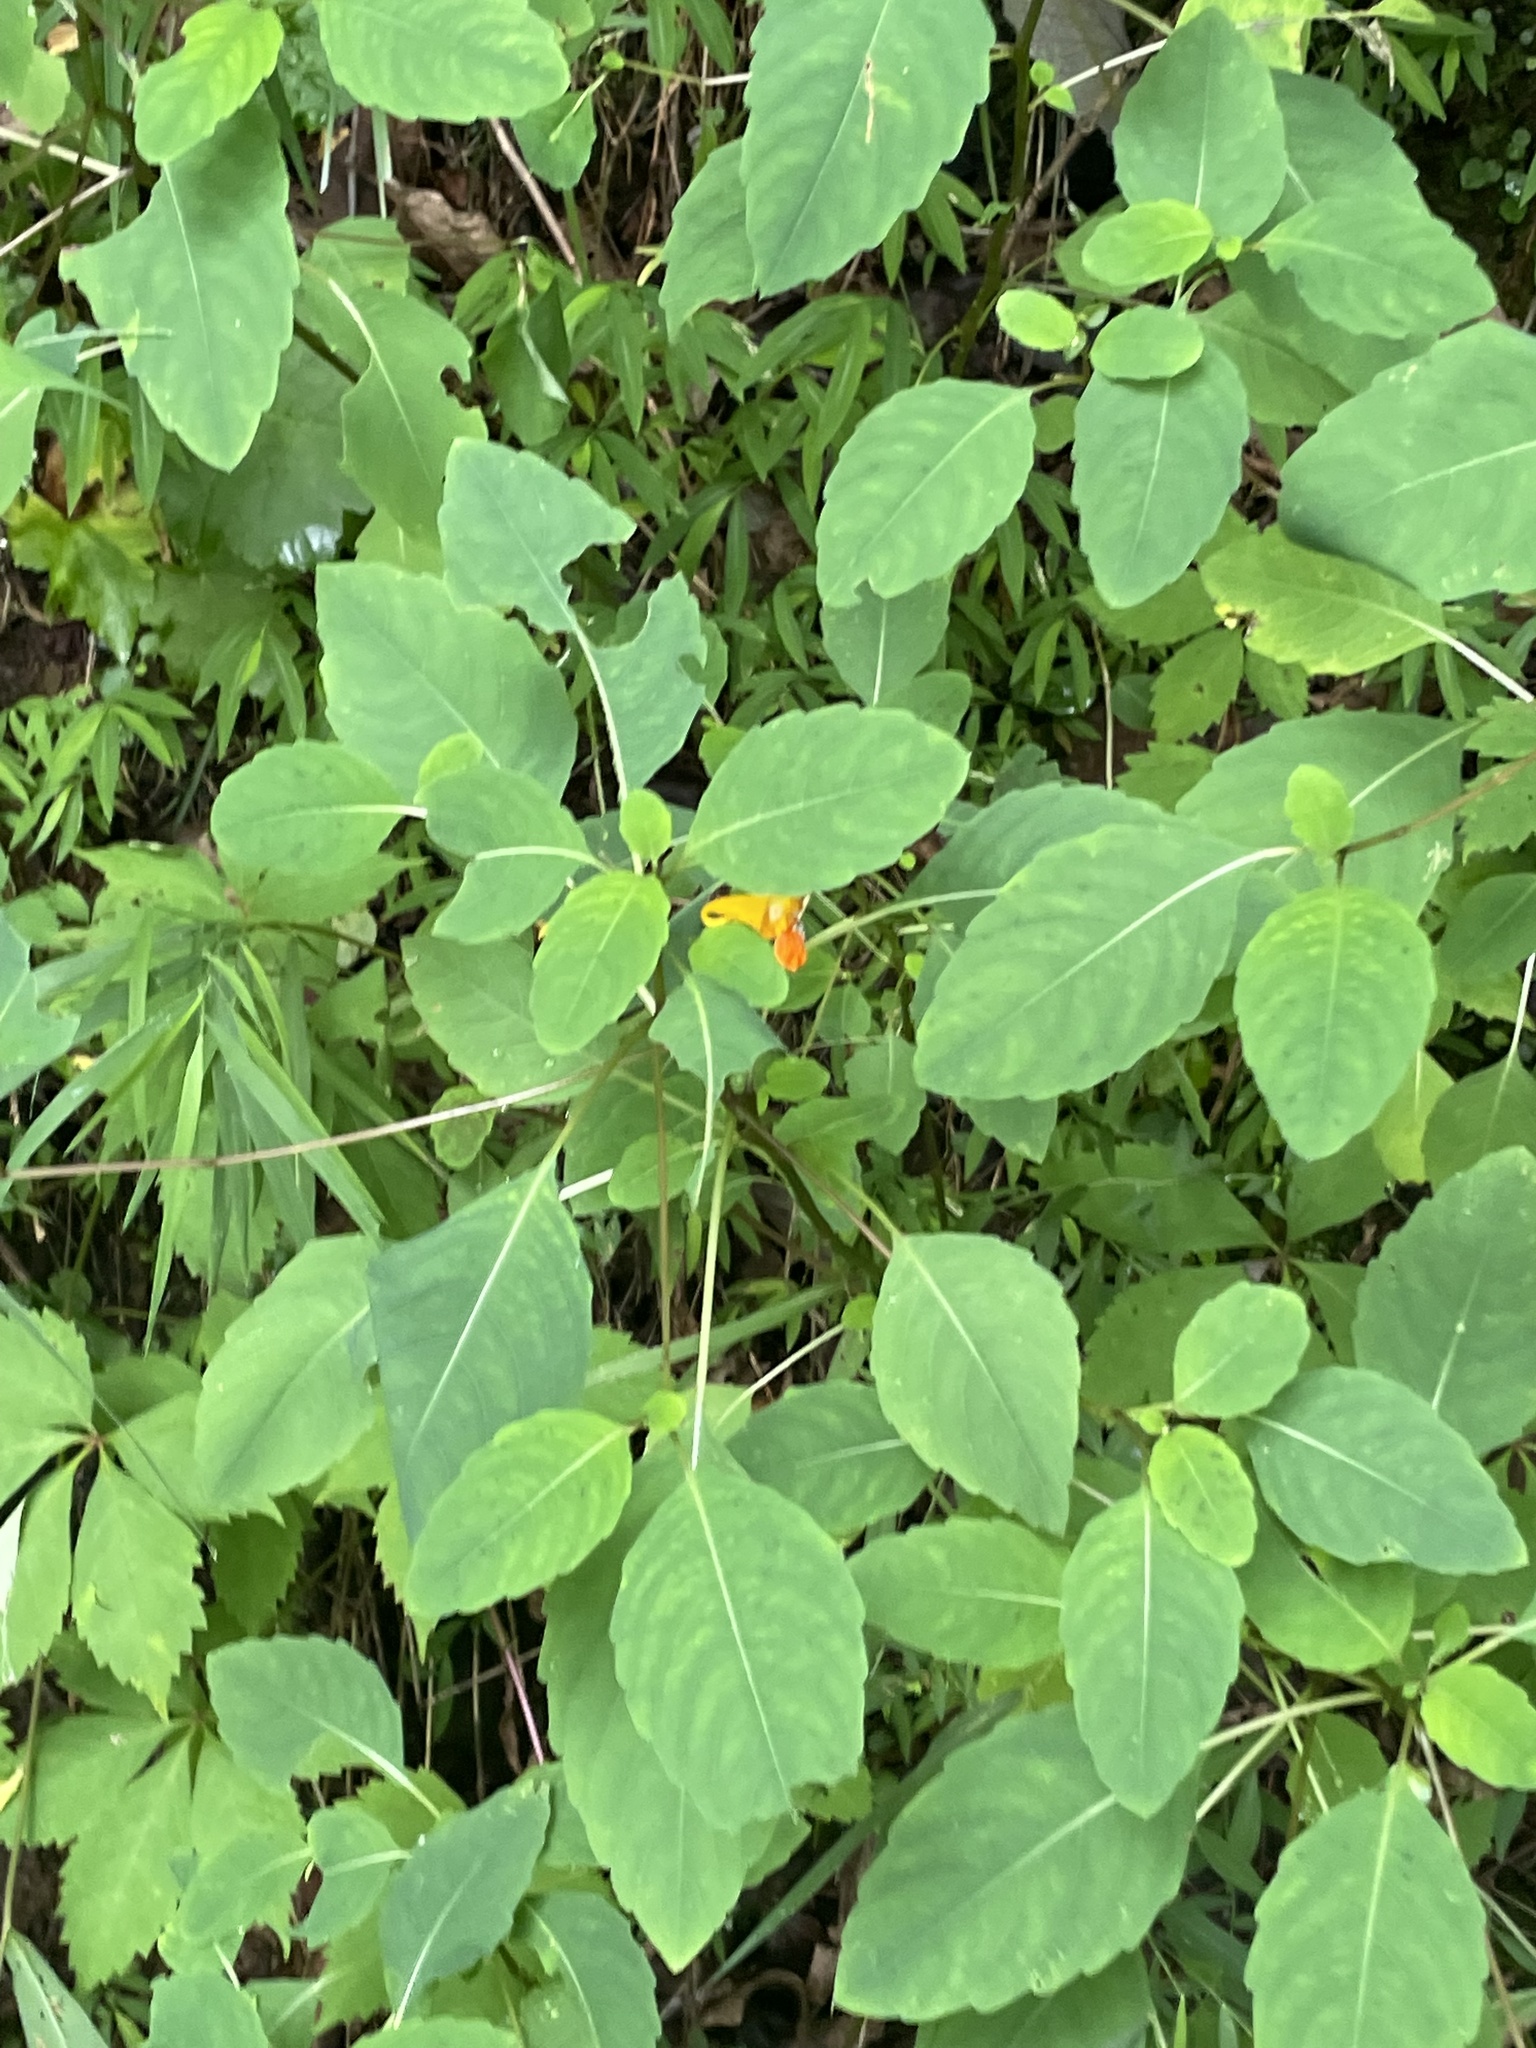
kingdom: Plantae
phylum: Tracheophyta
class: Magnoliopsida
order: Ericales
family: Balsaminaceae
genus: Impatiens
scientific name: Impatiens capensis
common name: Orange balsam
